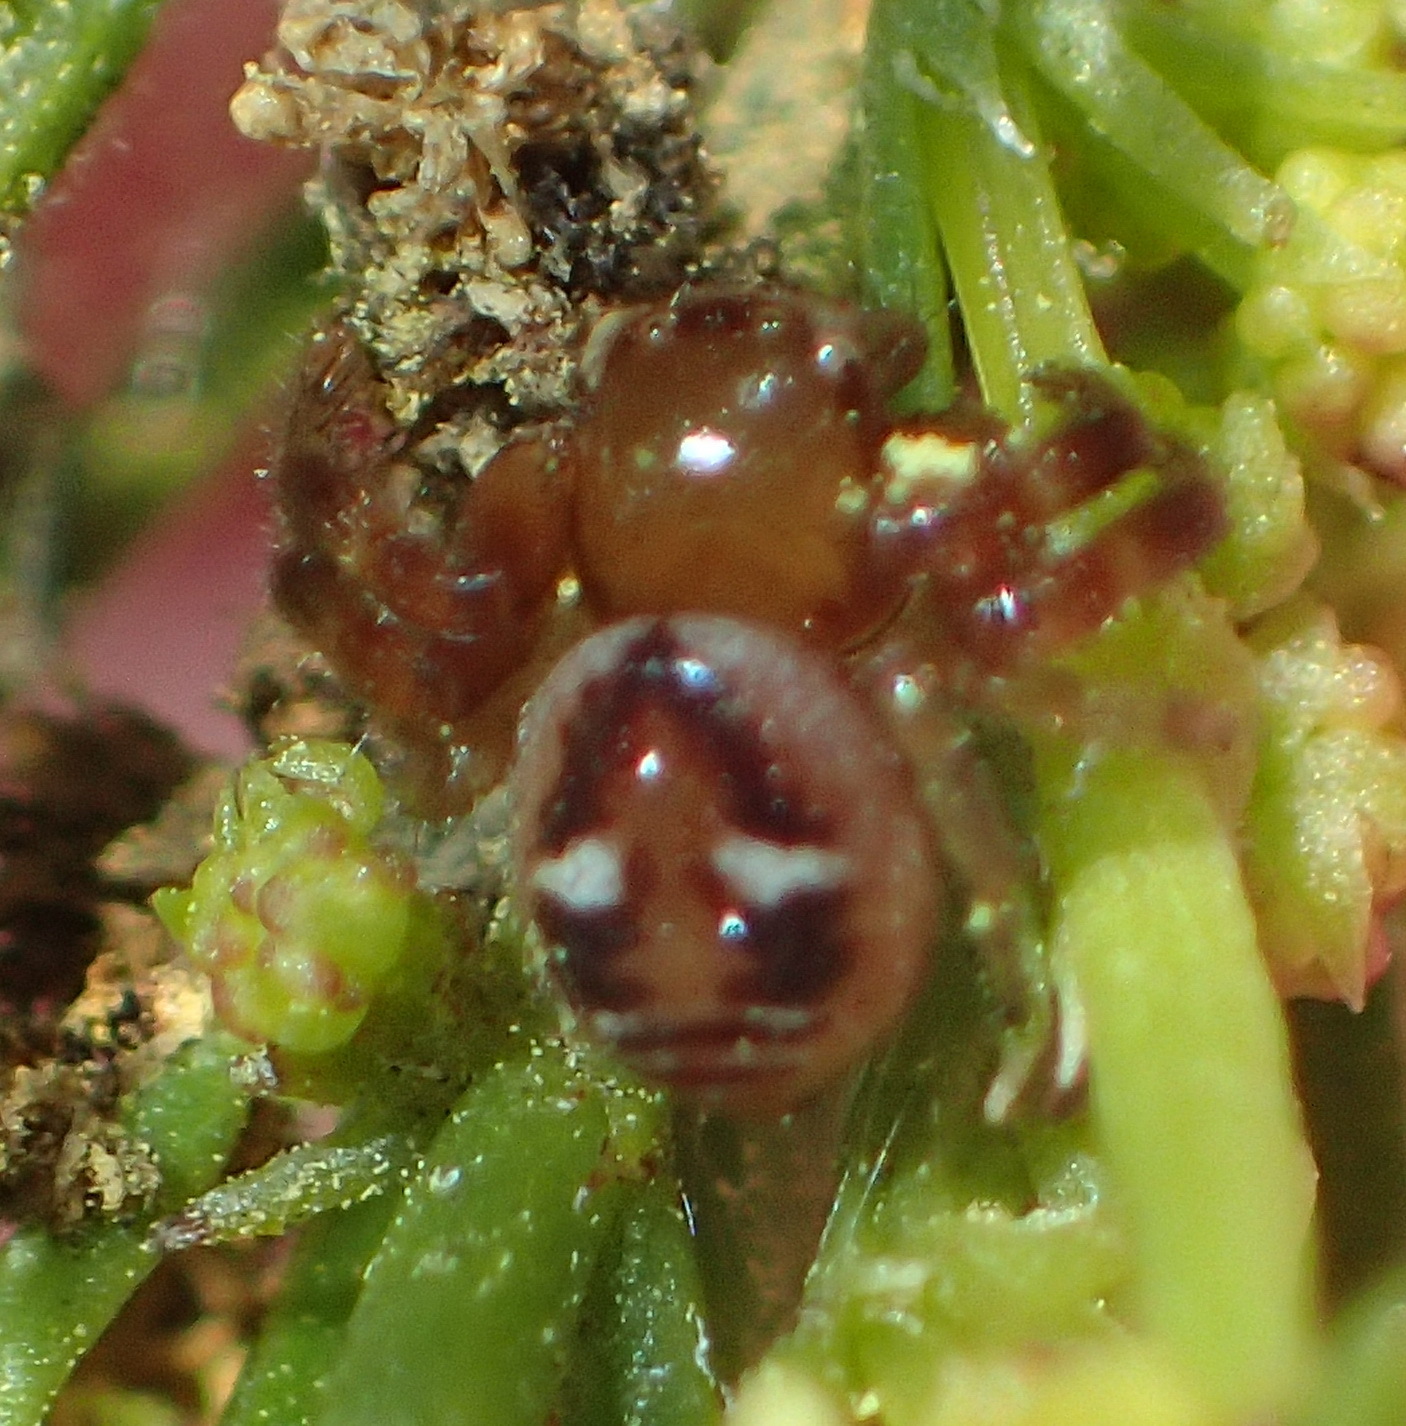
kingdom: Animalia
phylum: Arthropoda
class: Arachnida
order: Araneae
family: Thomisidae
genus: Synema
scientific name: Synema imitatrix
